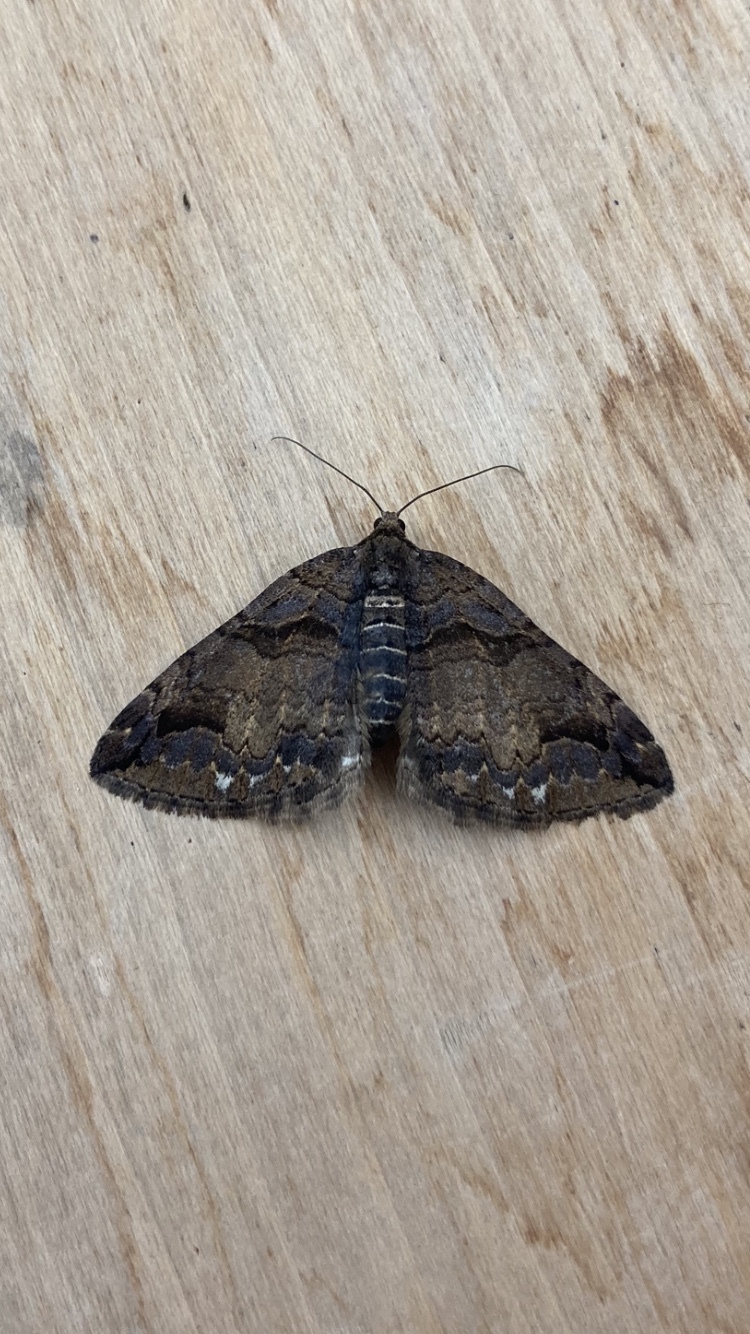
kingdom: Animalia
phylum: Arthropoda
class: Insecta
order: Lepidoptera
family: Geometridae
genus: Anticlea
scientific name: Anticlea vasiliata
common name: Variable carpet
